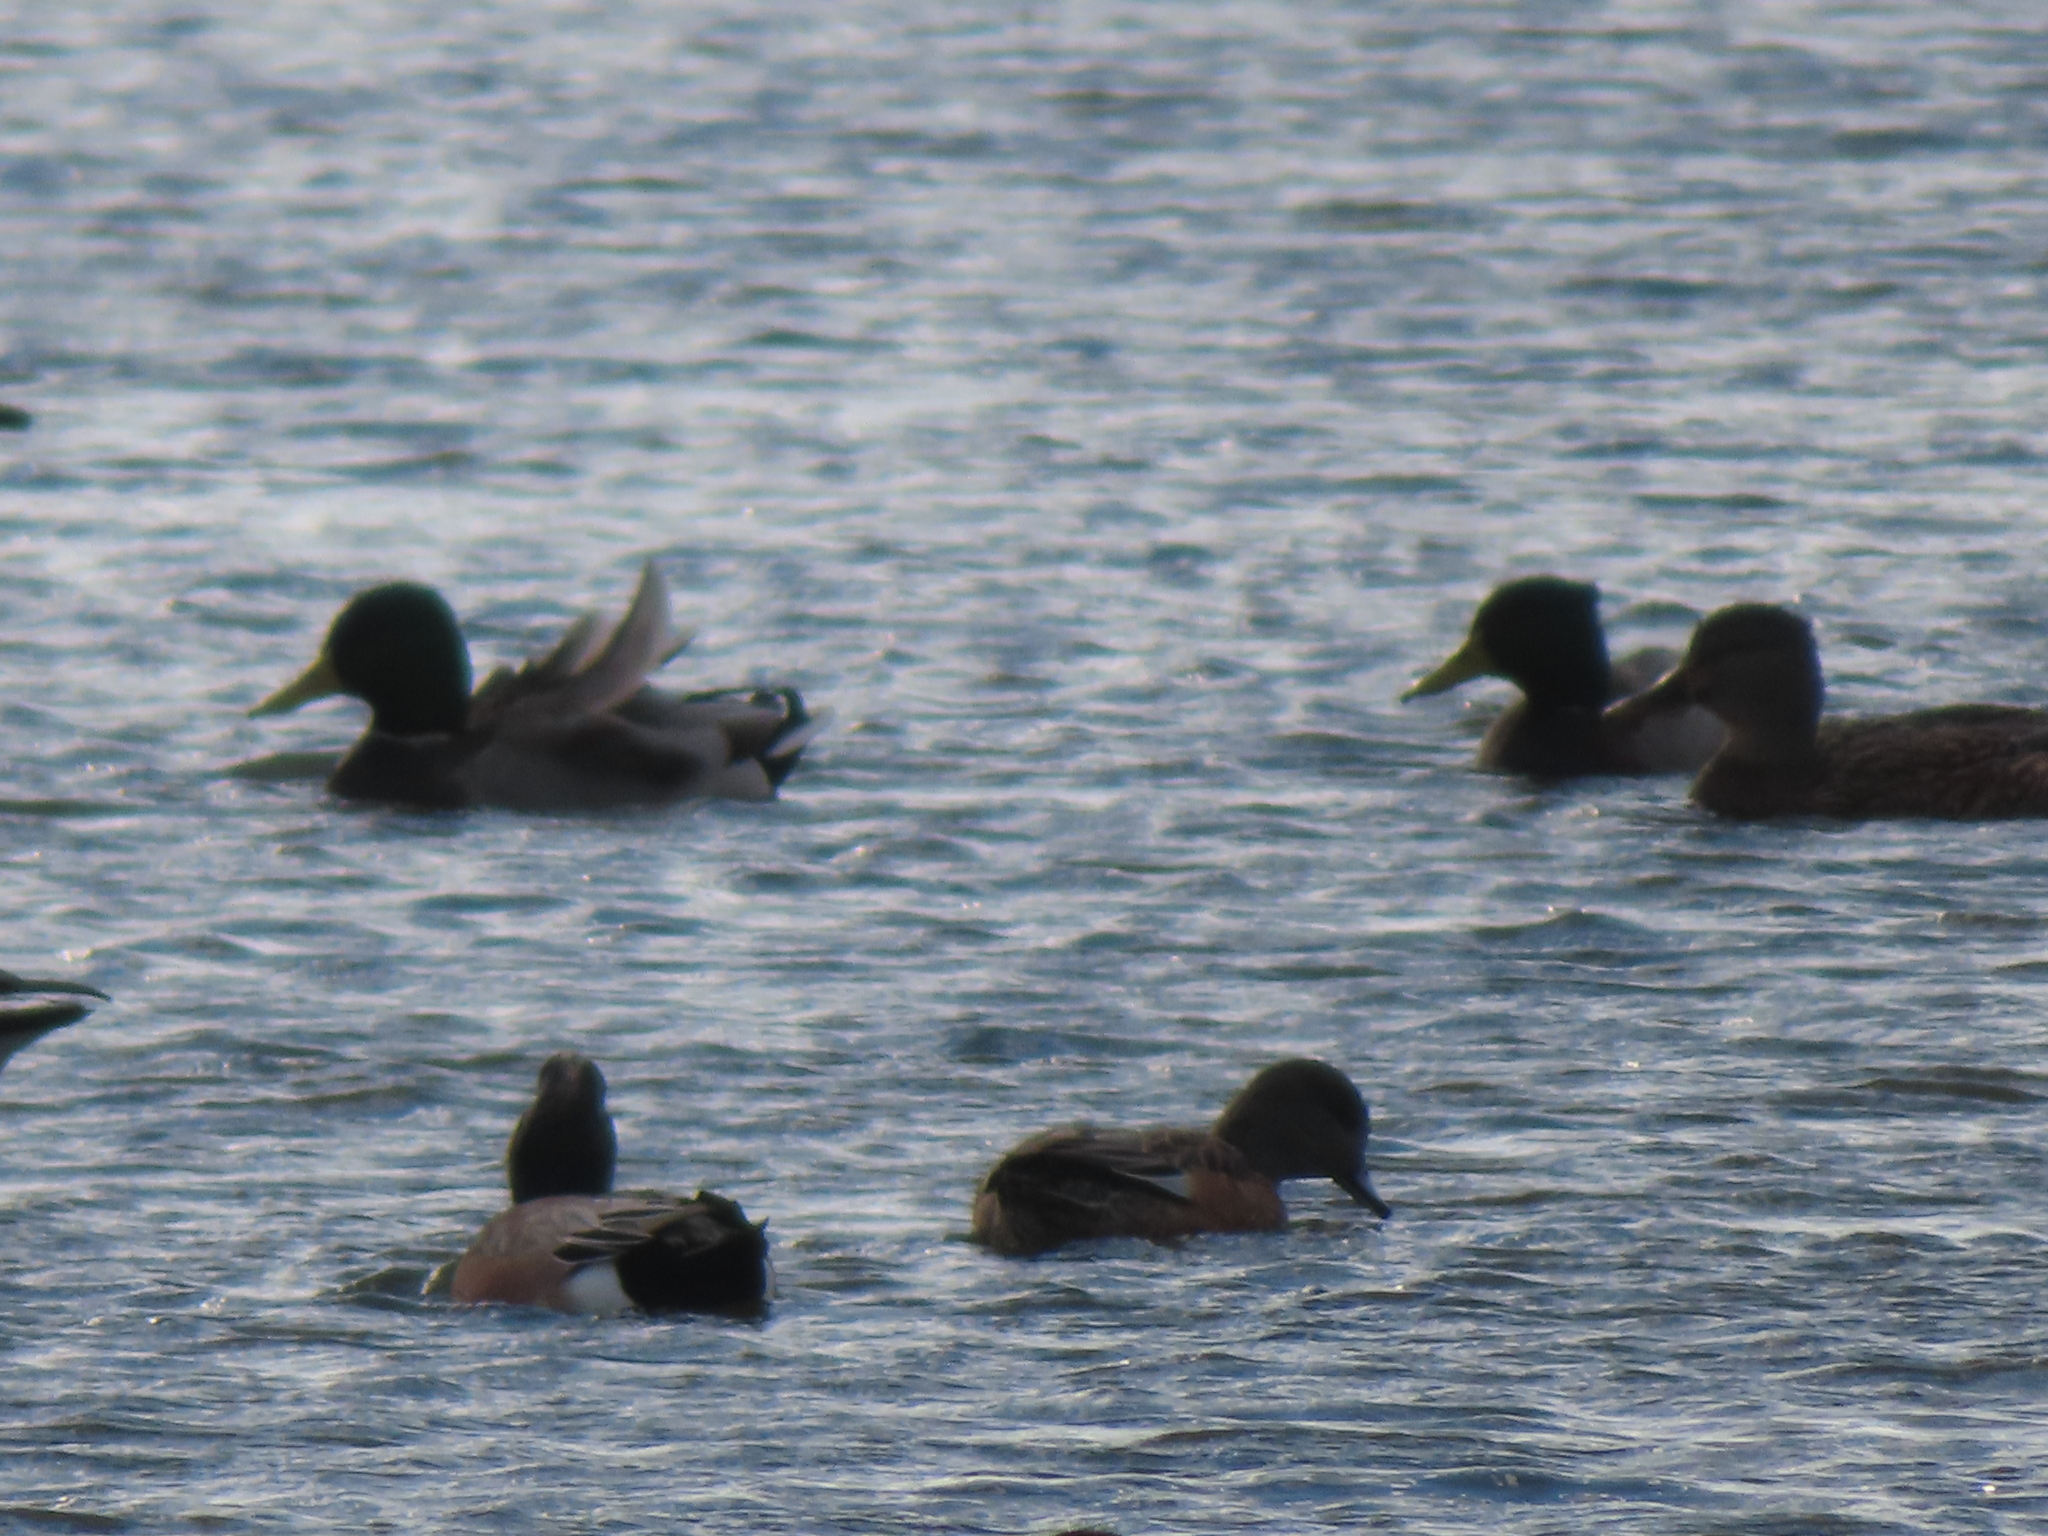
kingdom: Animalia
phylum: Chordata
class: Aves
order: Anseriformes
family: Anatidae
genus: Mareca
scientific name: Mareca americana
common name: American wigeon
